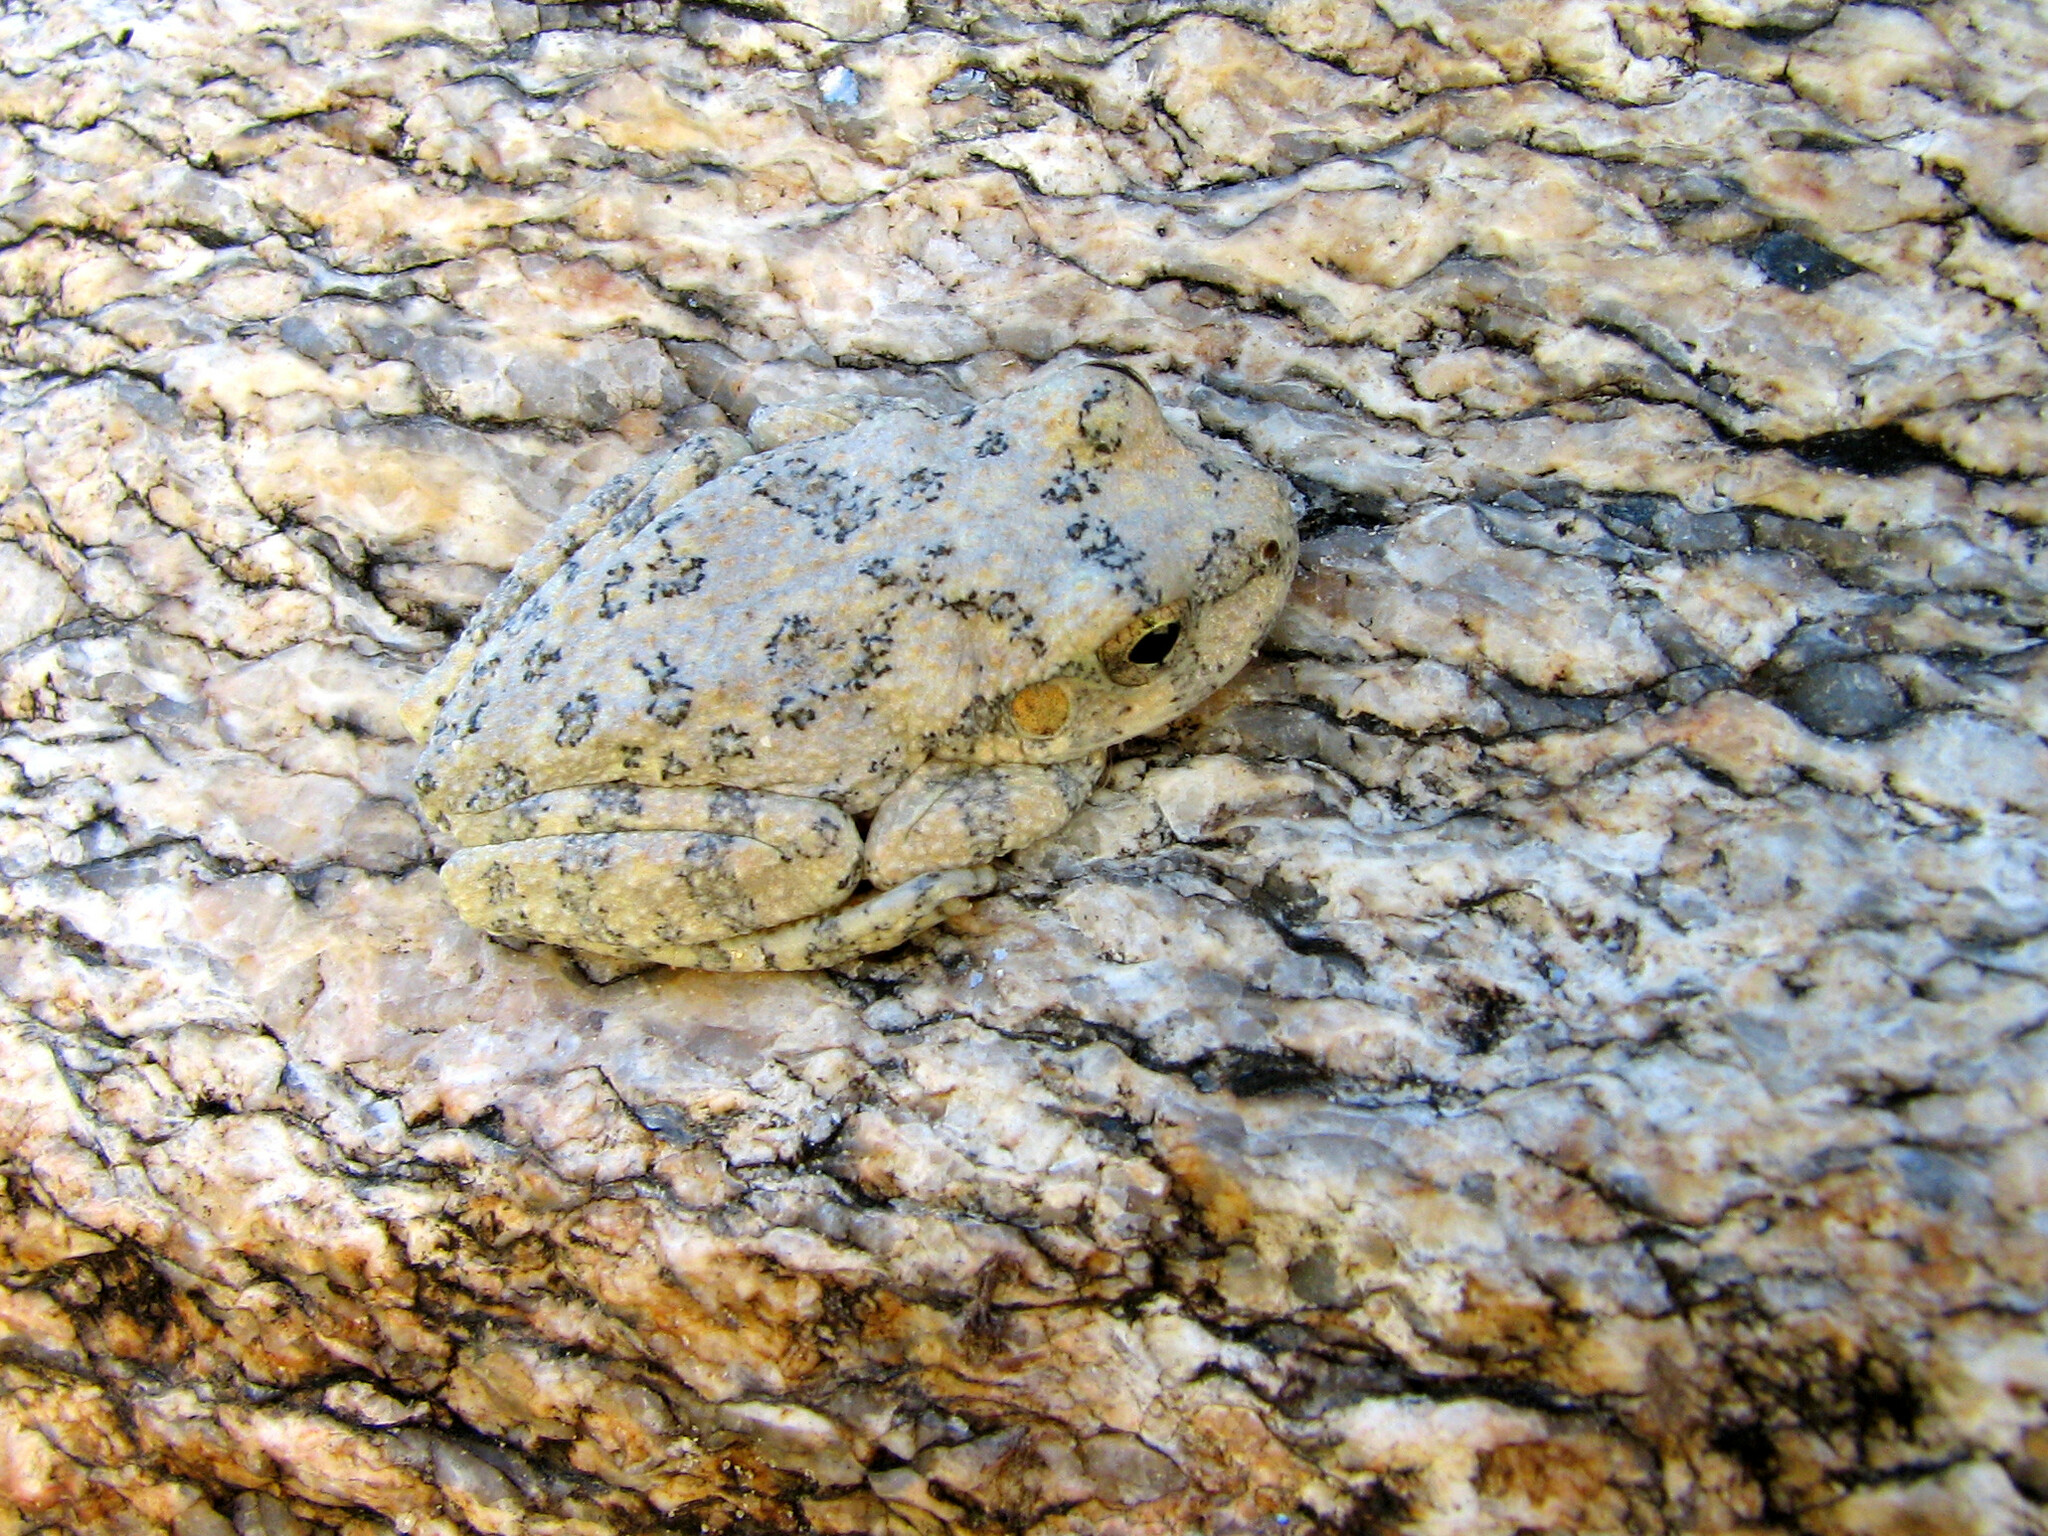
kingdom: Animalia
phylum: Chordata
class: Amphibia
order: Anura
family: Hylidae
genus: Dryophytes
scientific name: Dryophytes arenicolor
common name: Canyon treefrog
